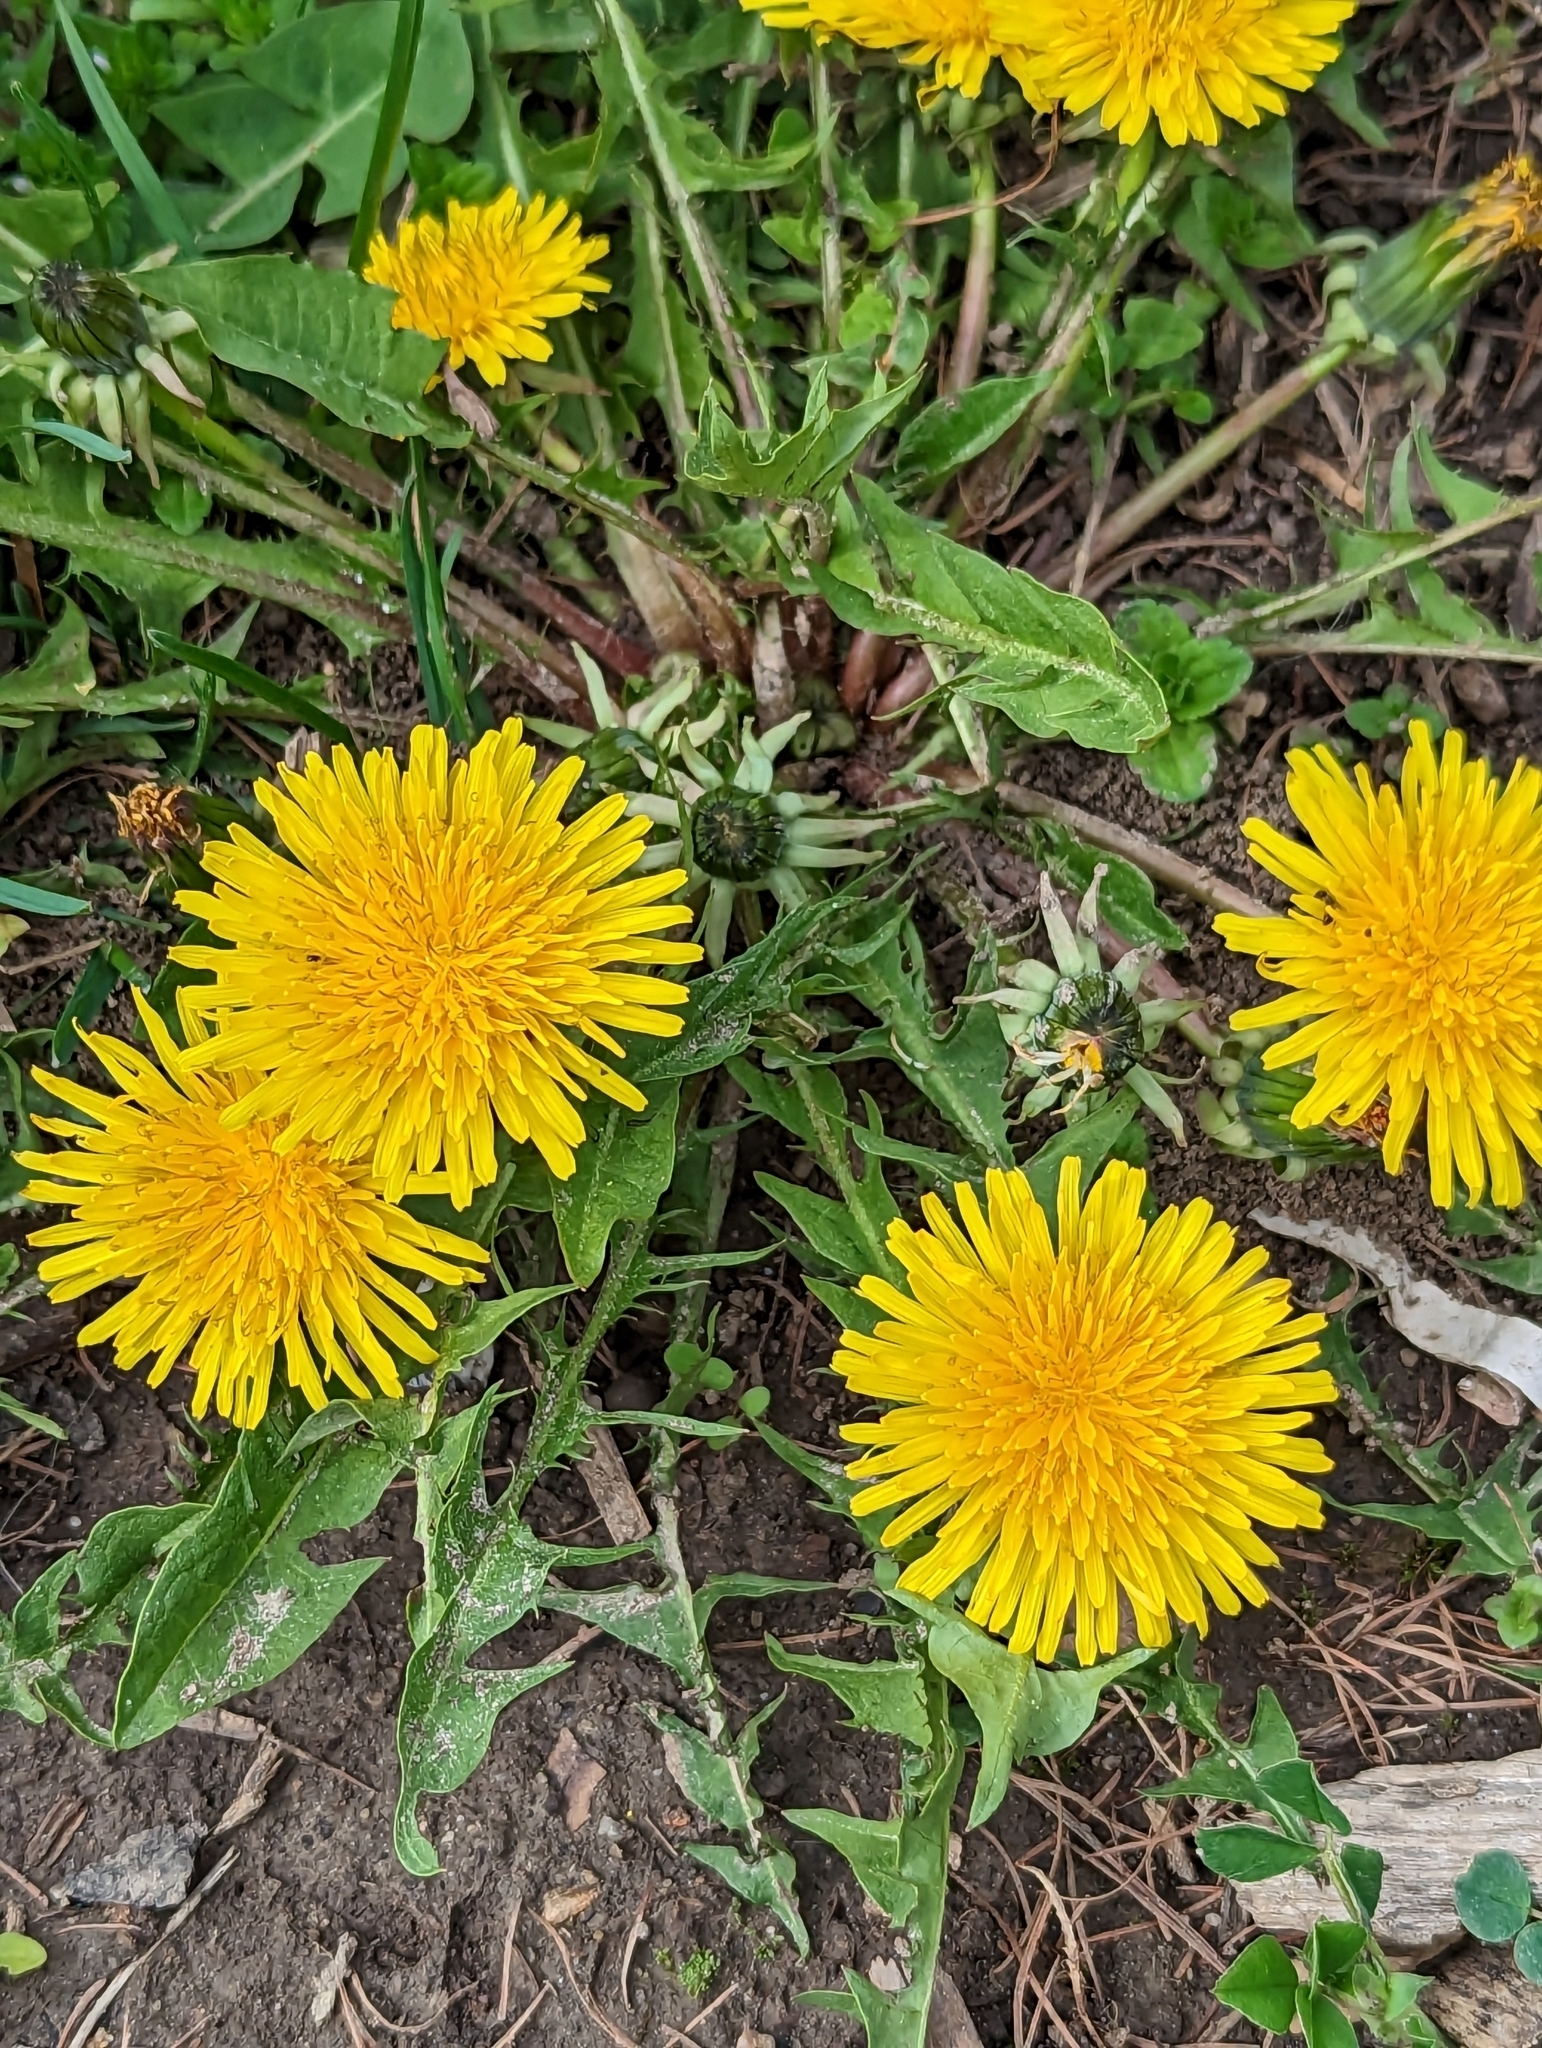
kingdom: Plantae
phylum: Tracheophyta
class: Magnoliopsida
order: Asterales
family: Asteraceae
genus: Taraxacum
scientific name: Taraxacum officinale
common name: Common dandelion
